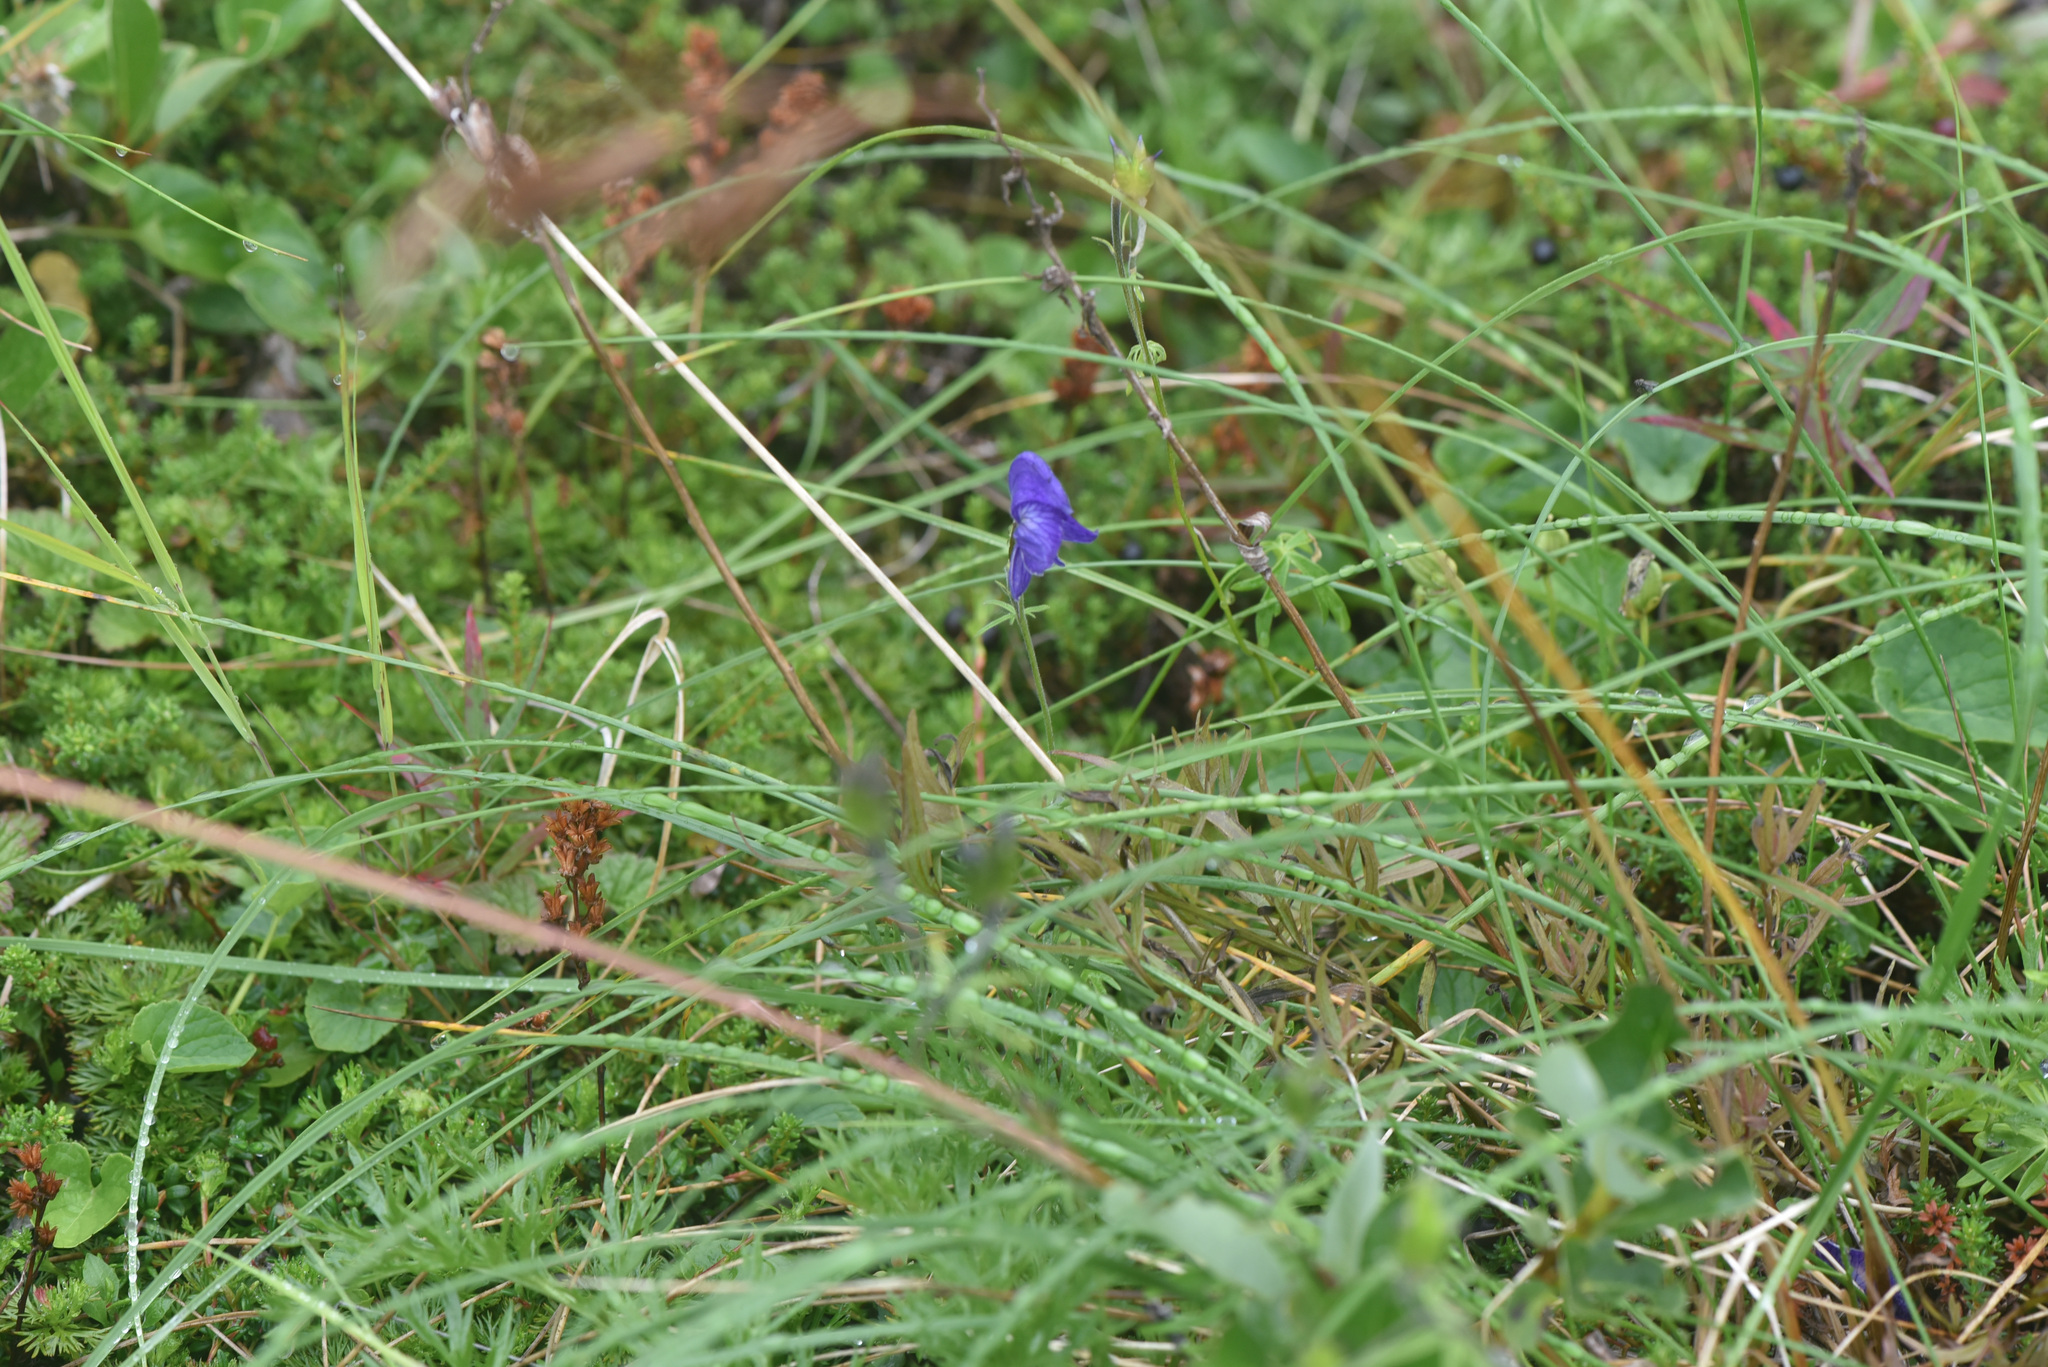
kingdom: Plantae
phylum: Tracheophyta
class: Magnoliopsida
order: Ranunculales
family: Ranunculaceae
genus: Aconitum
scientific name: Aconitum delphiniifolium
